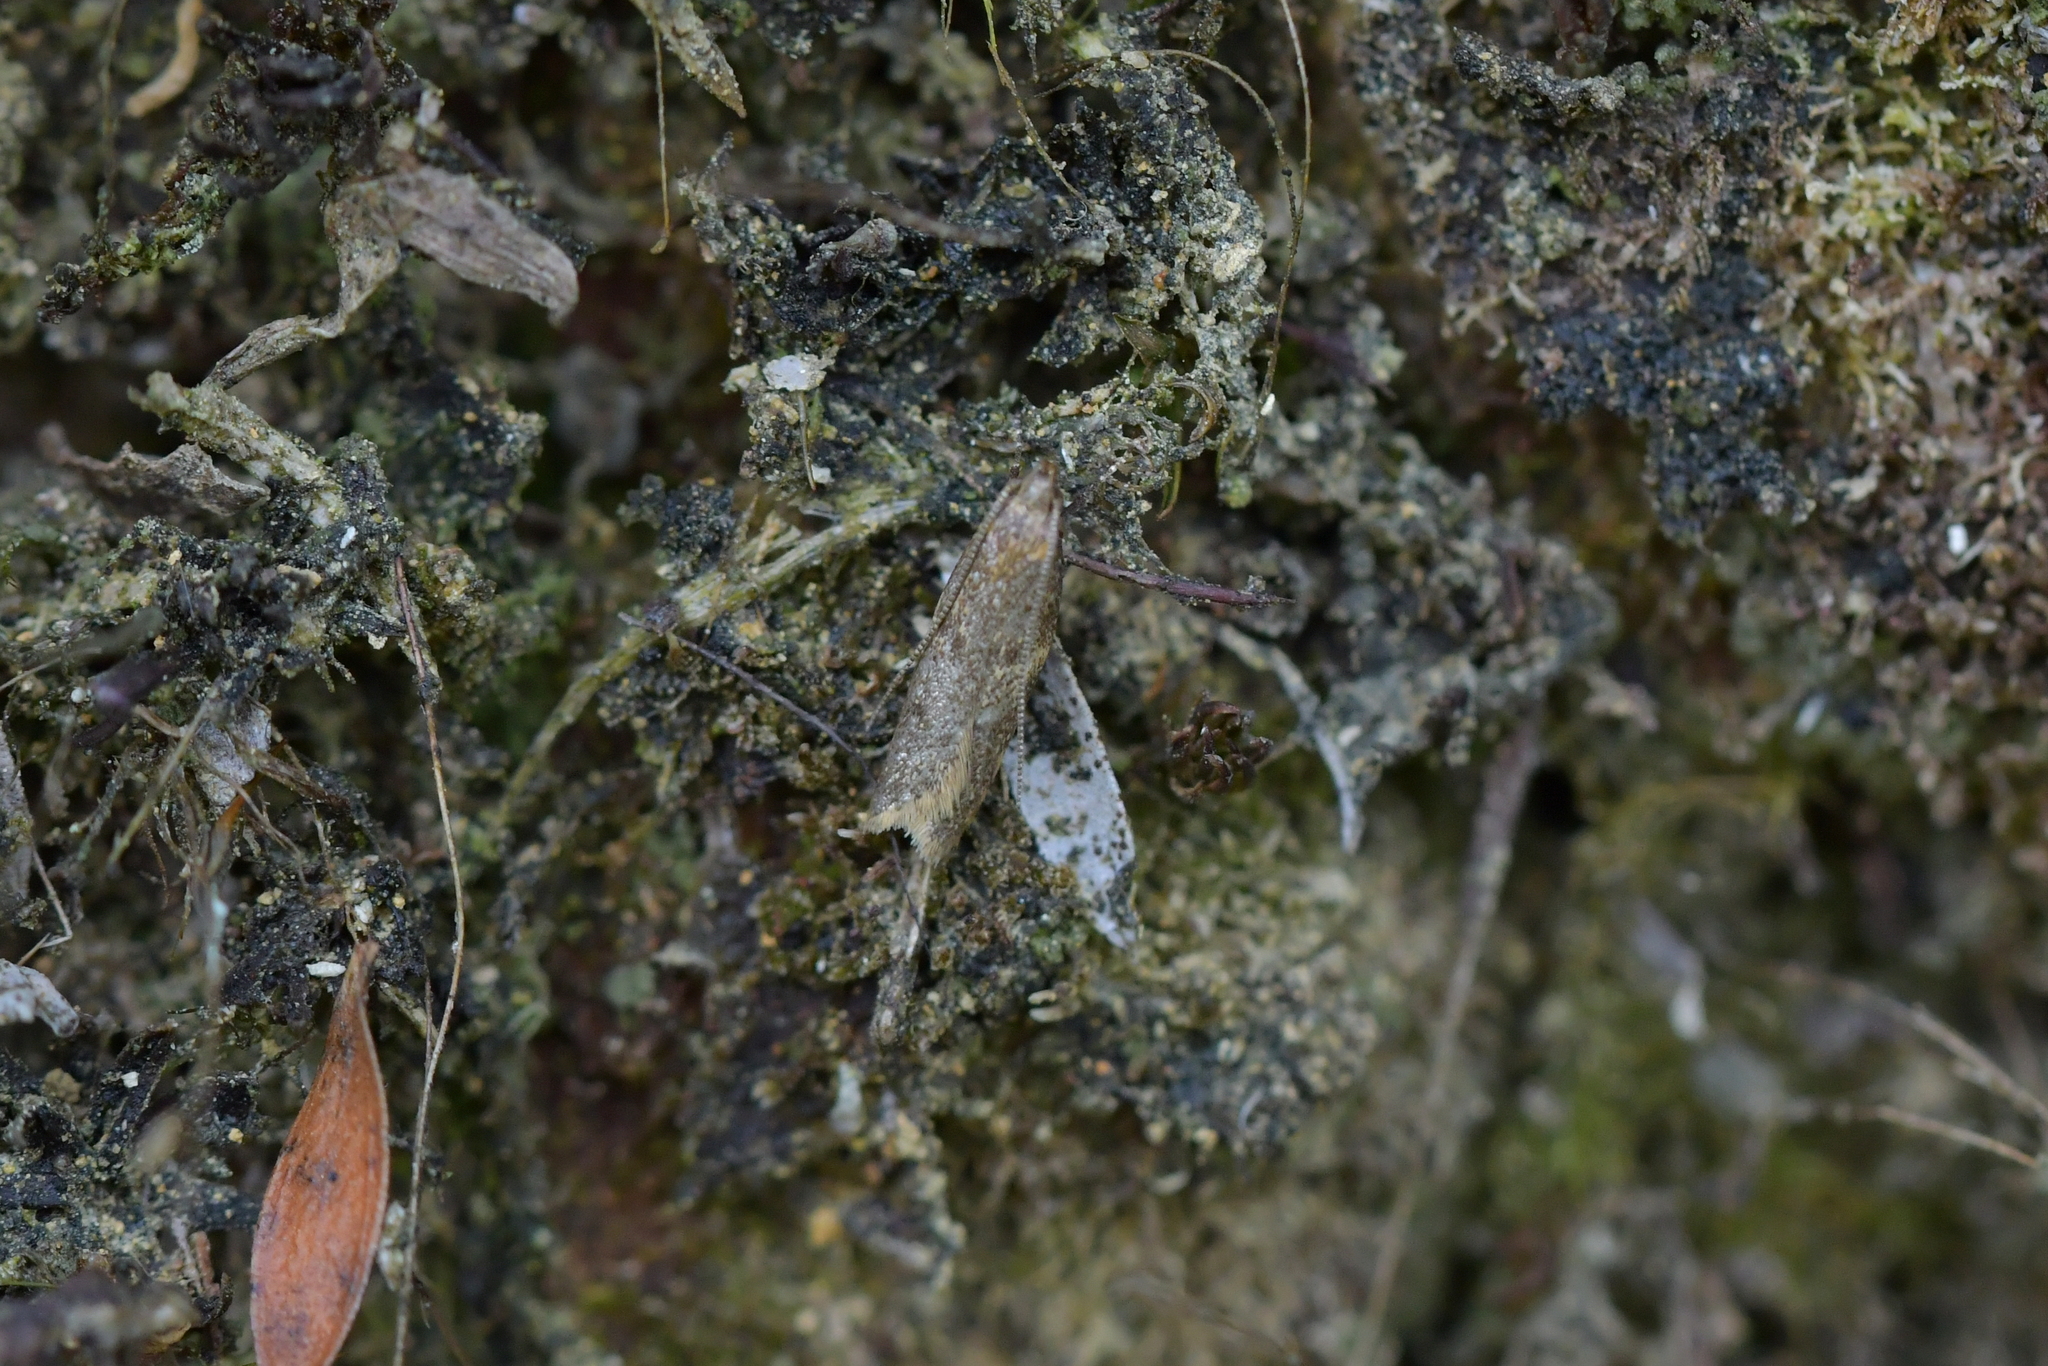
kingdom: Animalia
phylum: Arthropoda
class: Insecta
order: Lepidoptera
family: Oecophoridae
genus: Gymnobathra
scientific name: Gymnobathra tholodella
